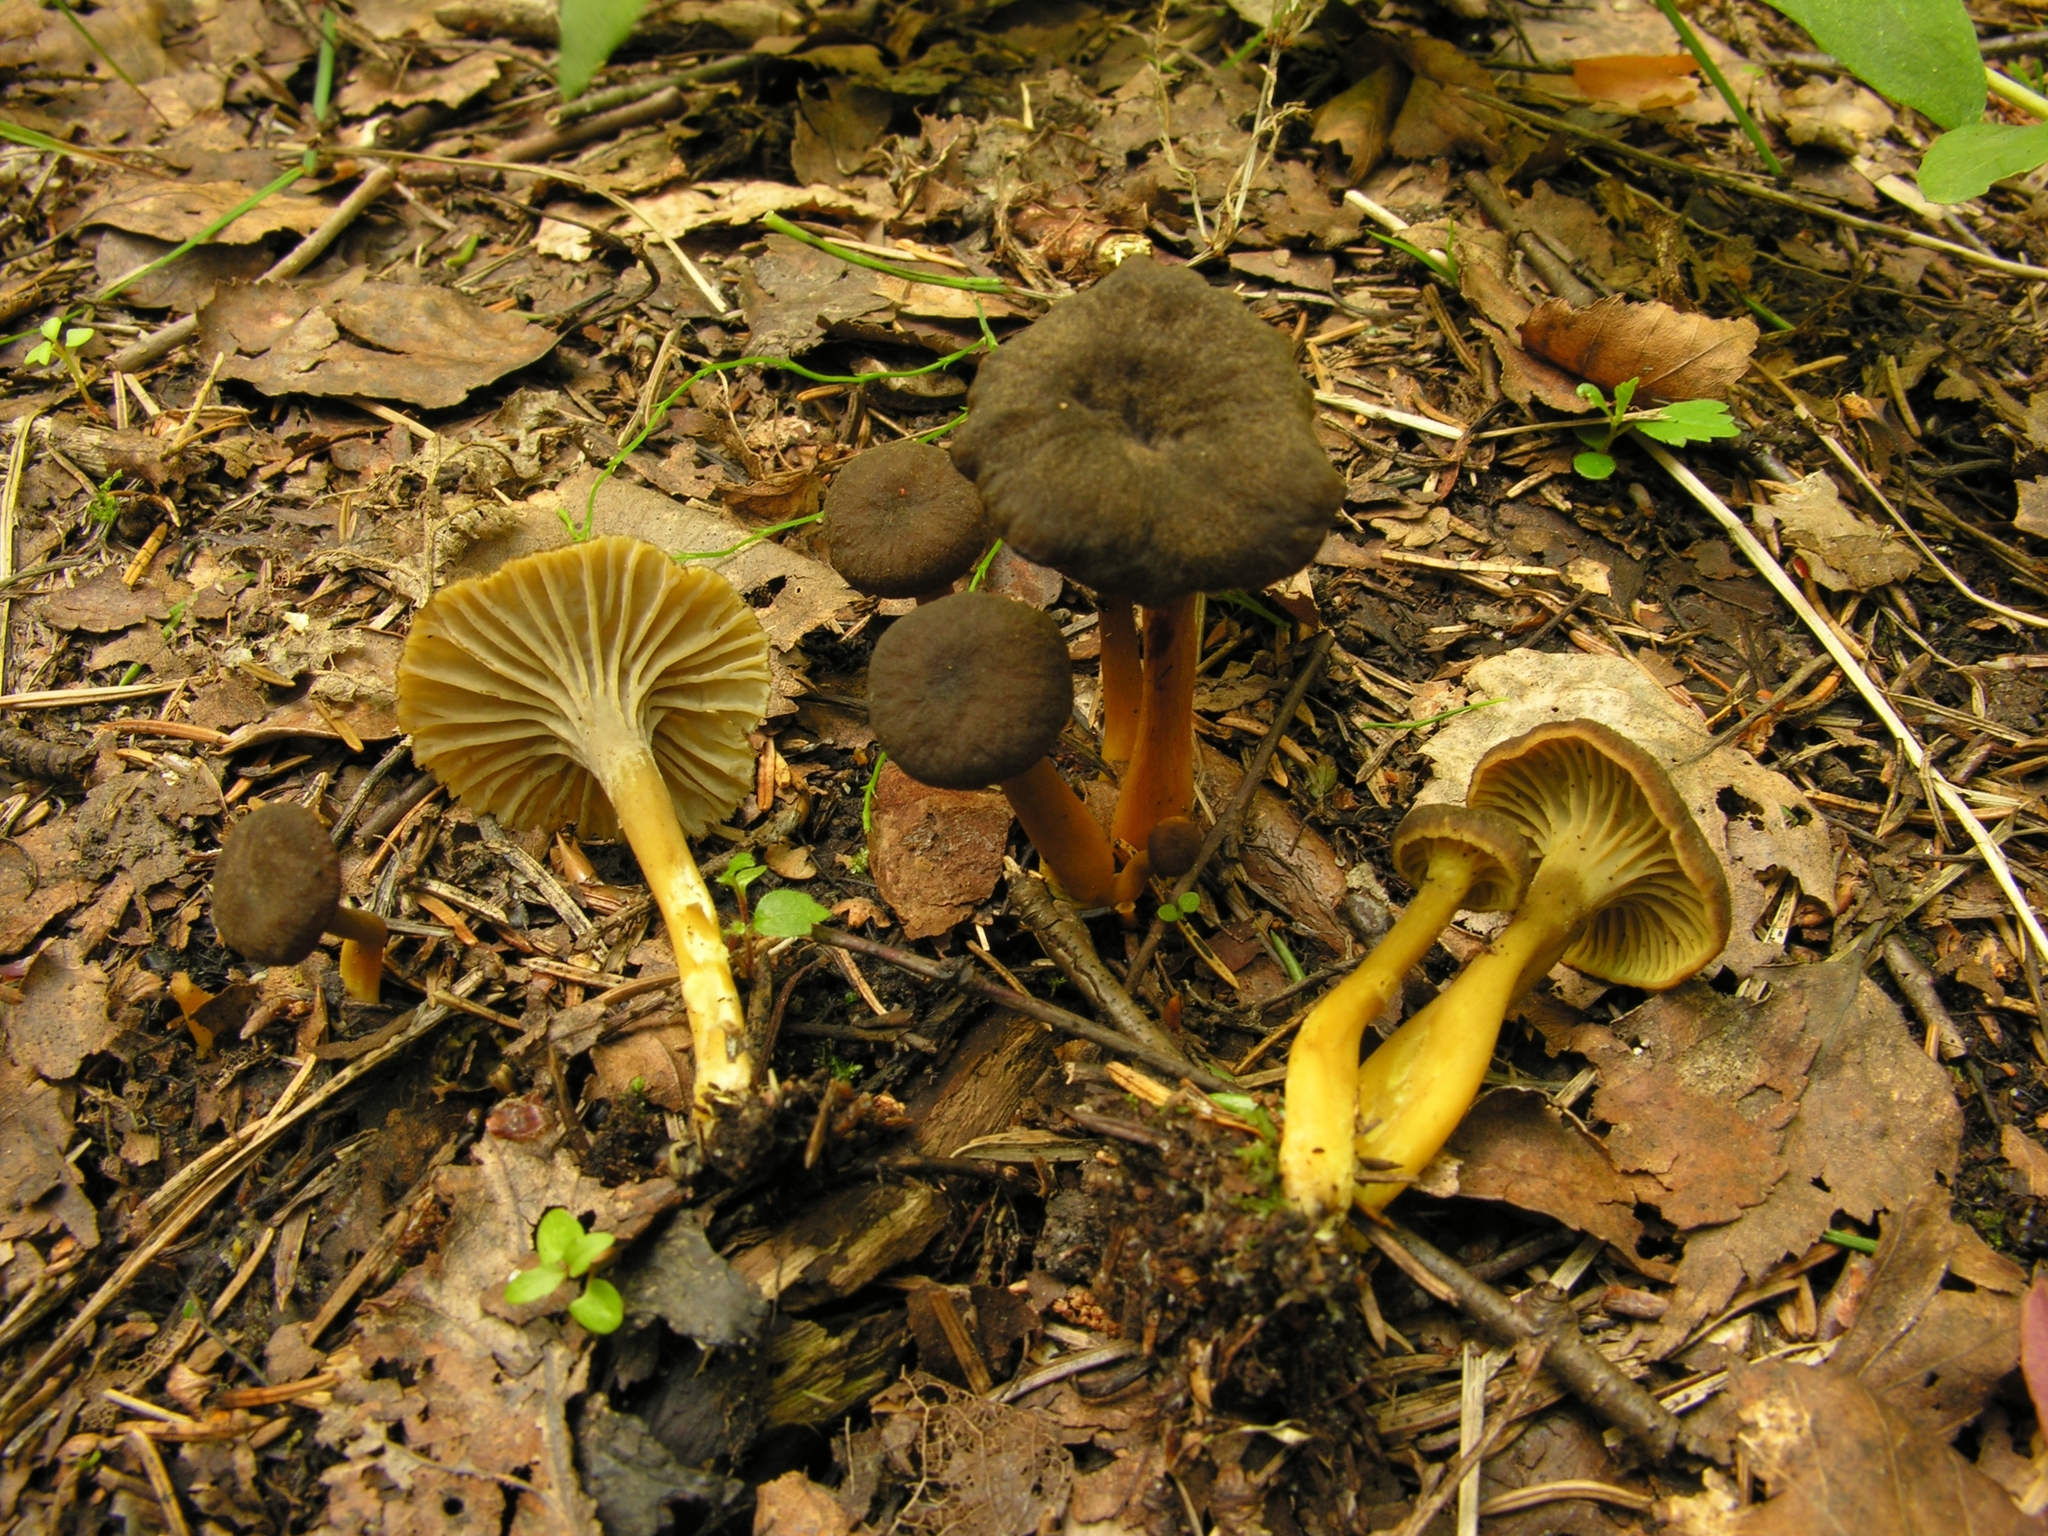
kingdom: Fungi
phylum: Basidiomycota
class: Agaricomycetes
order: Cantharellales
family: Hydnaceae
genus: Craterellus
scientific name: Craterellus tubaeformis
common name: Yellowfoot
